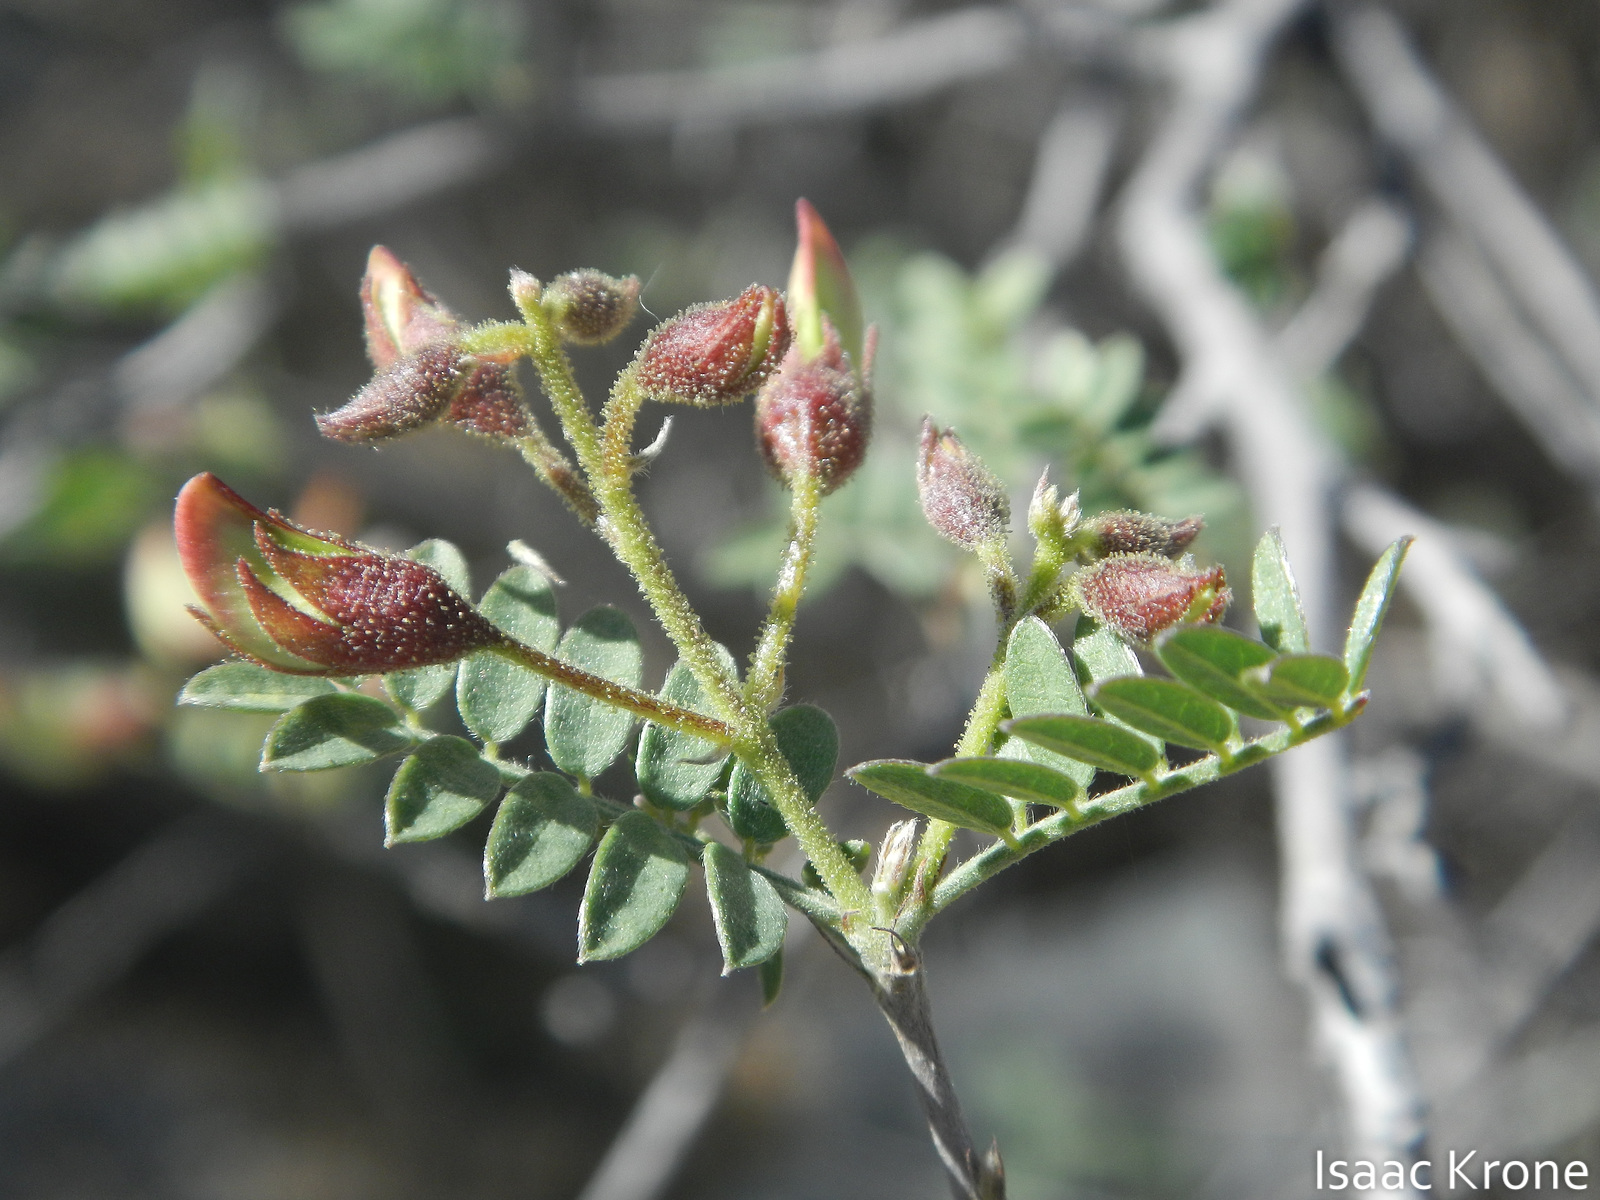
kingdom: Plantae
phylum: Tracheophyta
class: Magnoliopsida
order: Fabales
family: Fabaceae
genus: Coursetia
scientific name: Coursetia glandulosa
